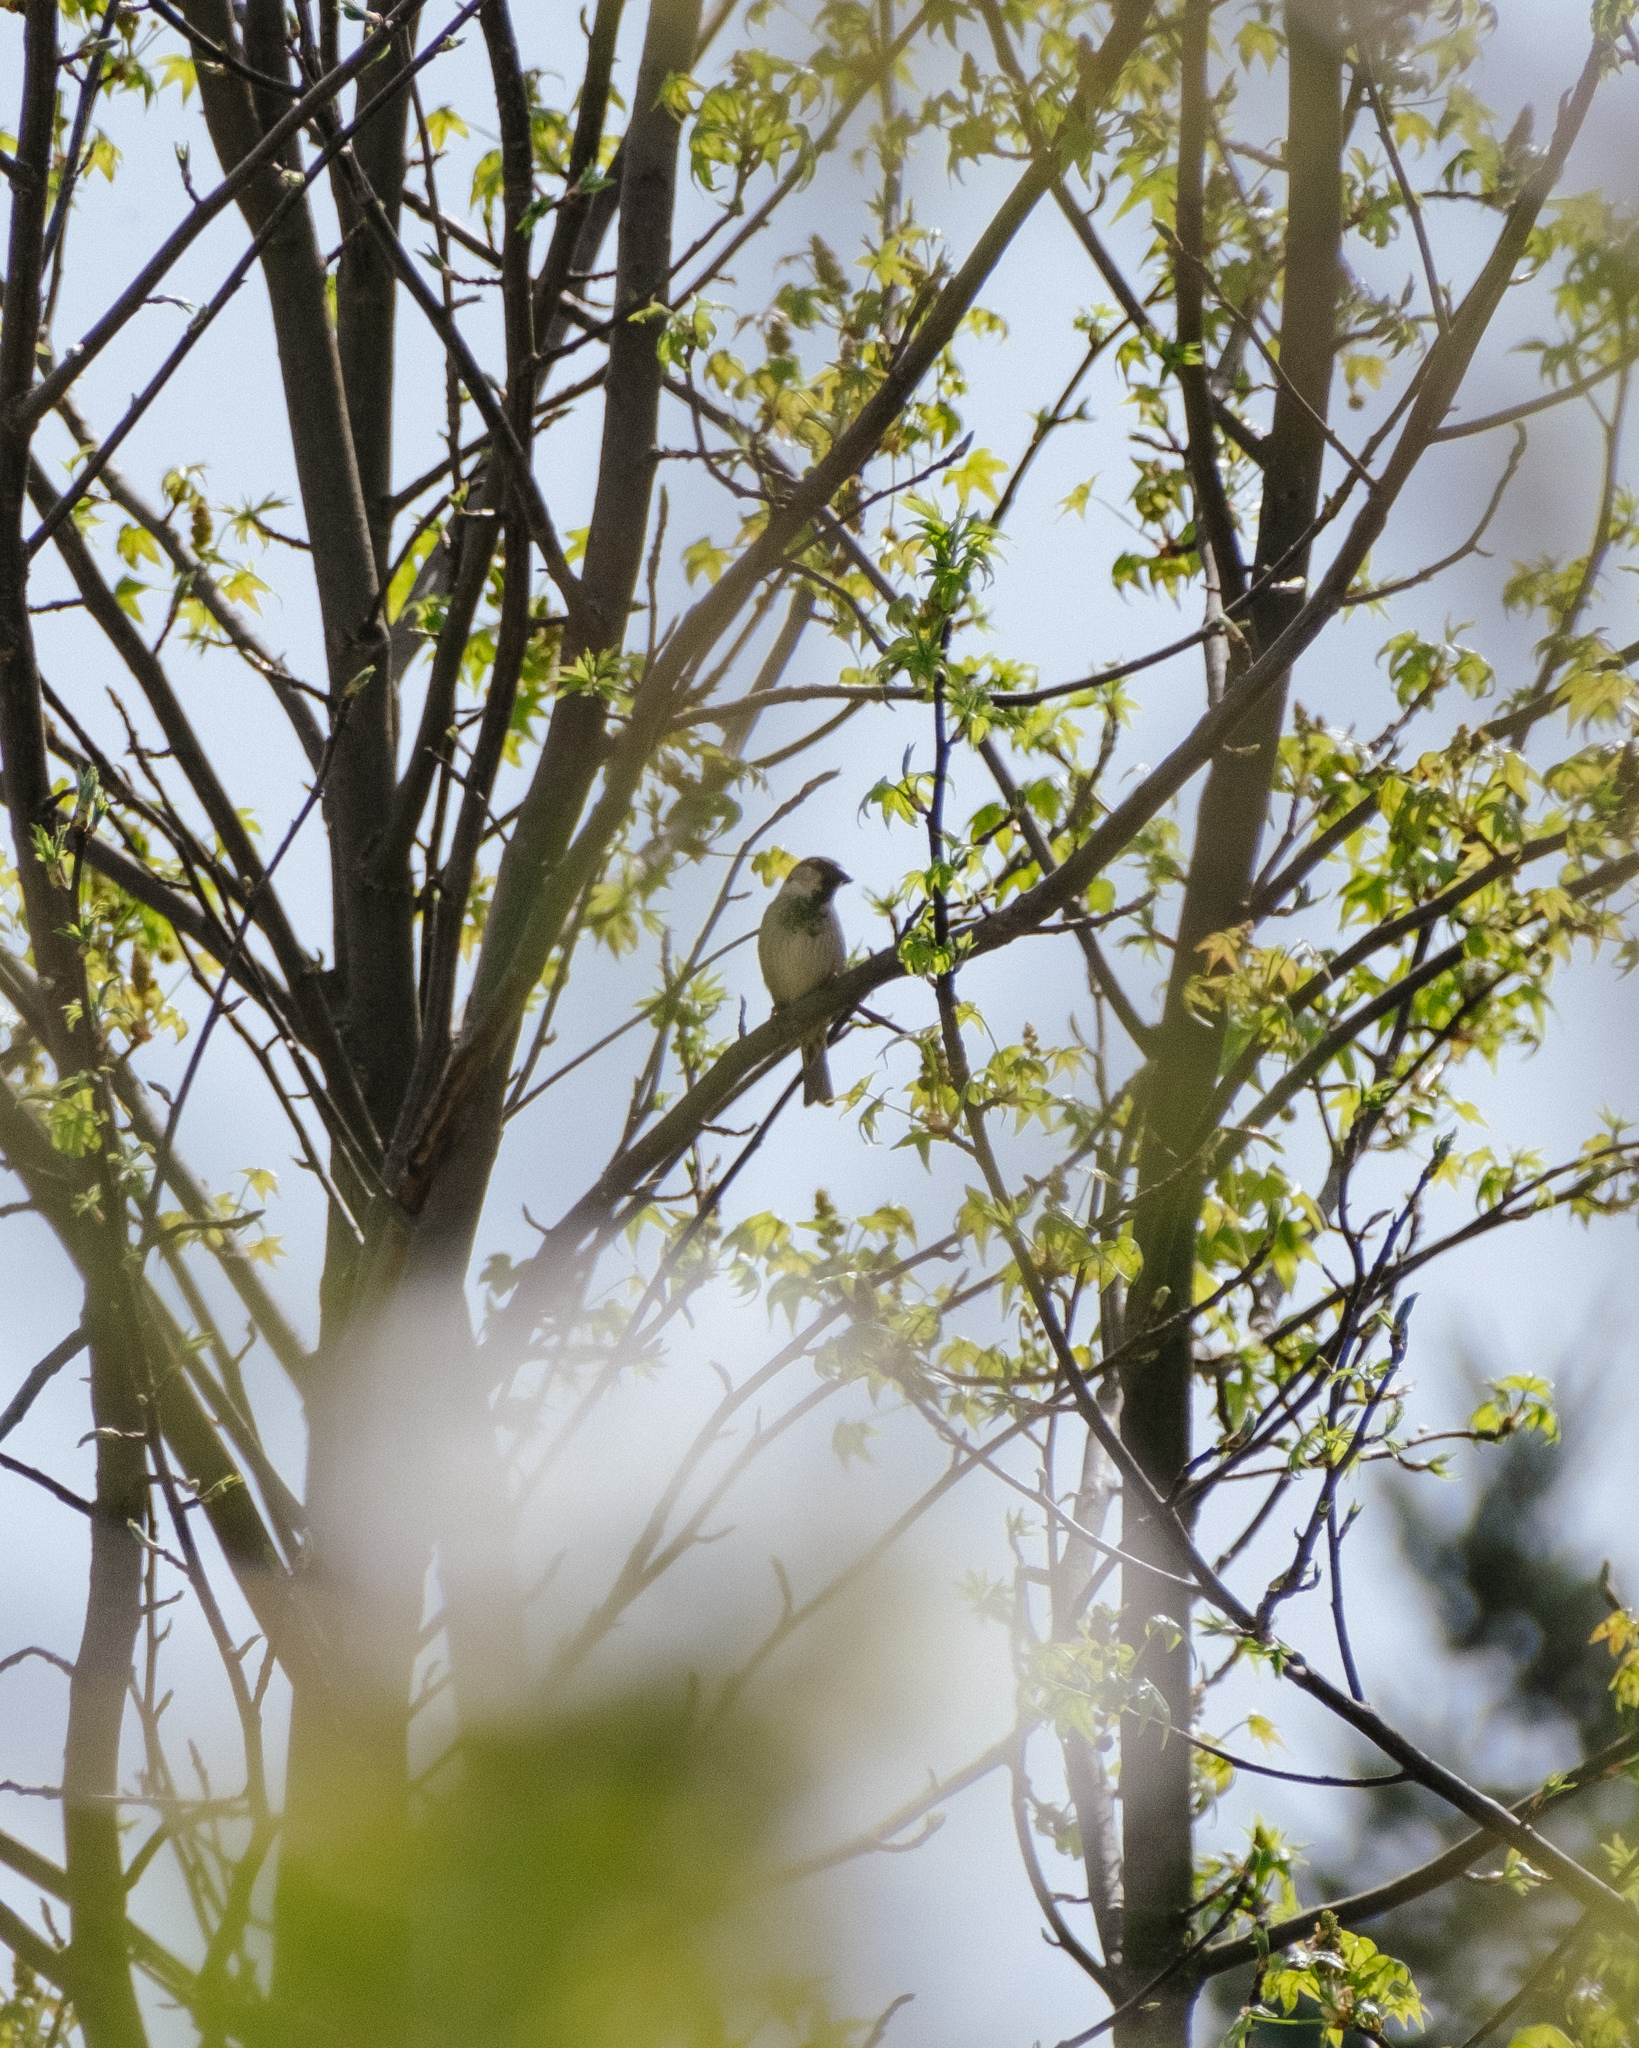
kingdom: Animalia
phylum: Chordata
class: Aves
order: Passeriformes
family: Passeridae
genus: Passer
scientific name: Passer domesticus
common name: House sparrow
